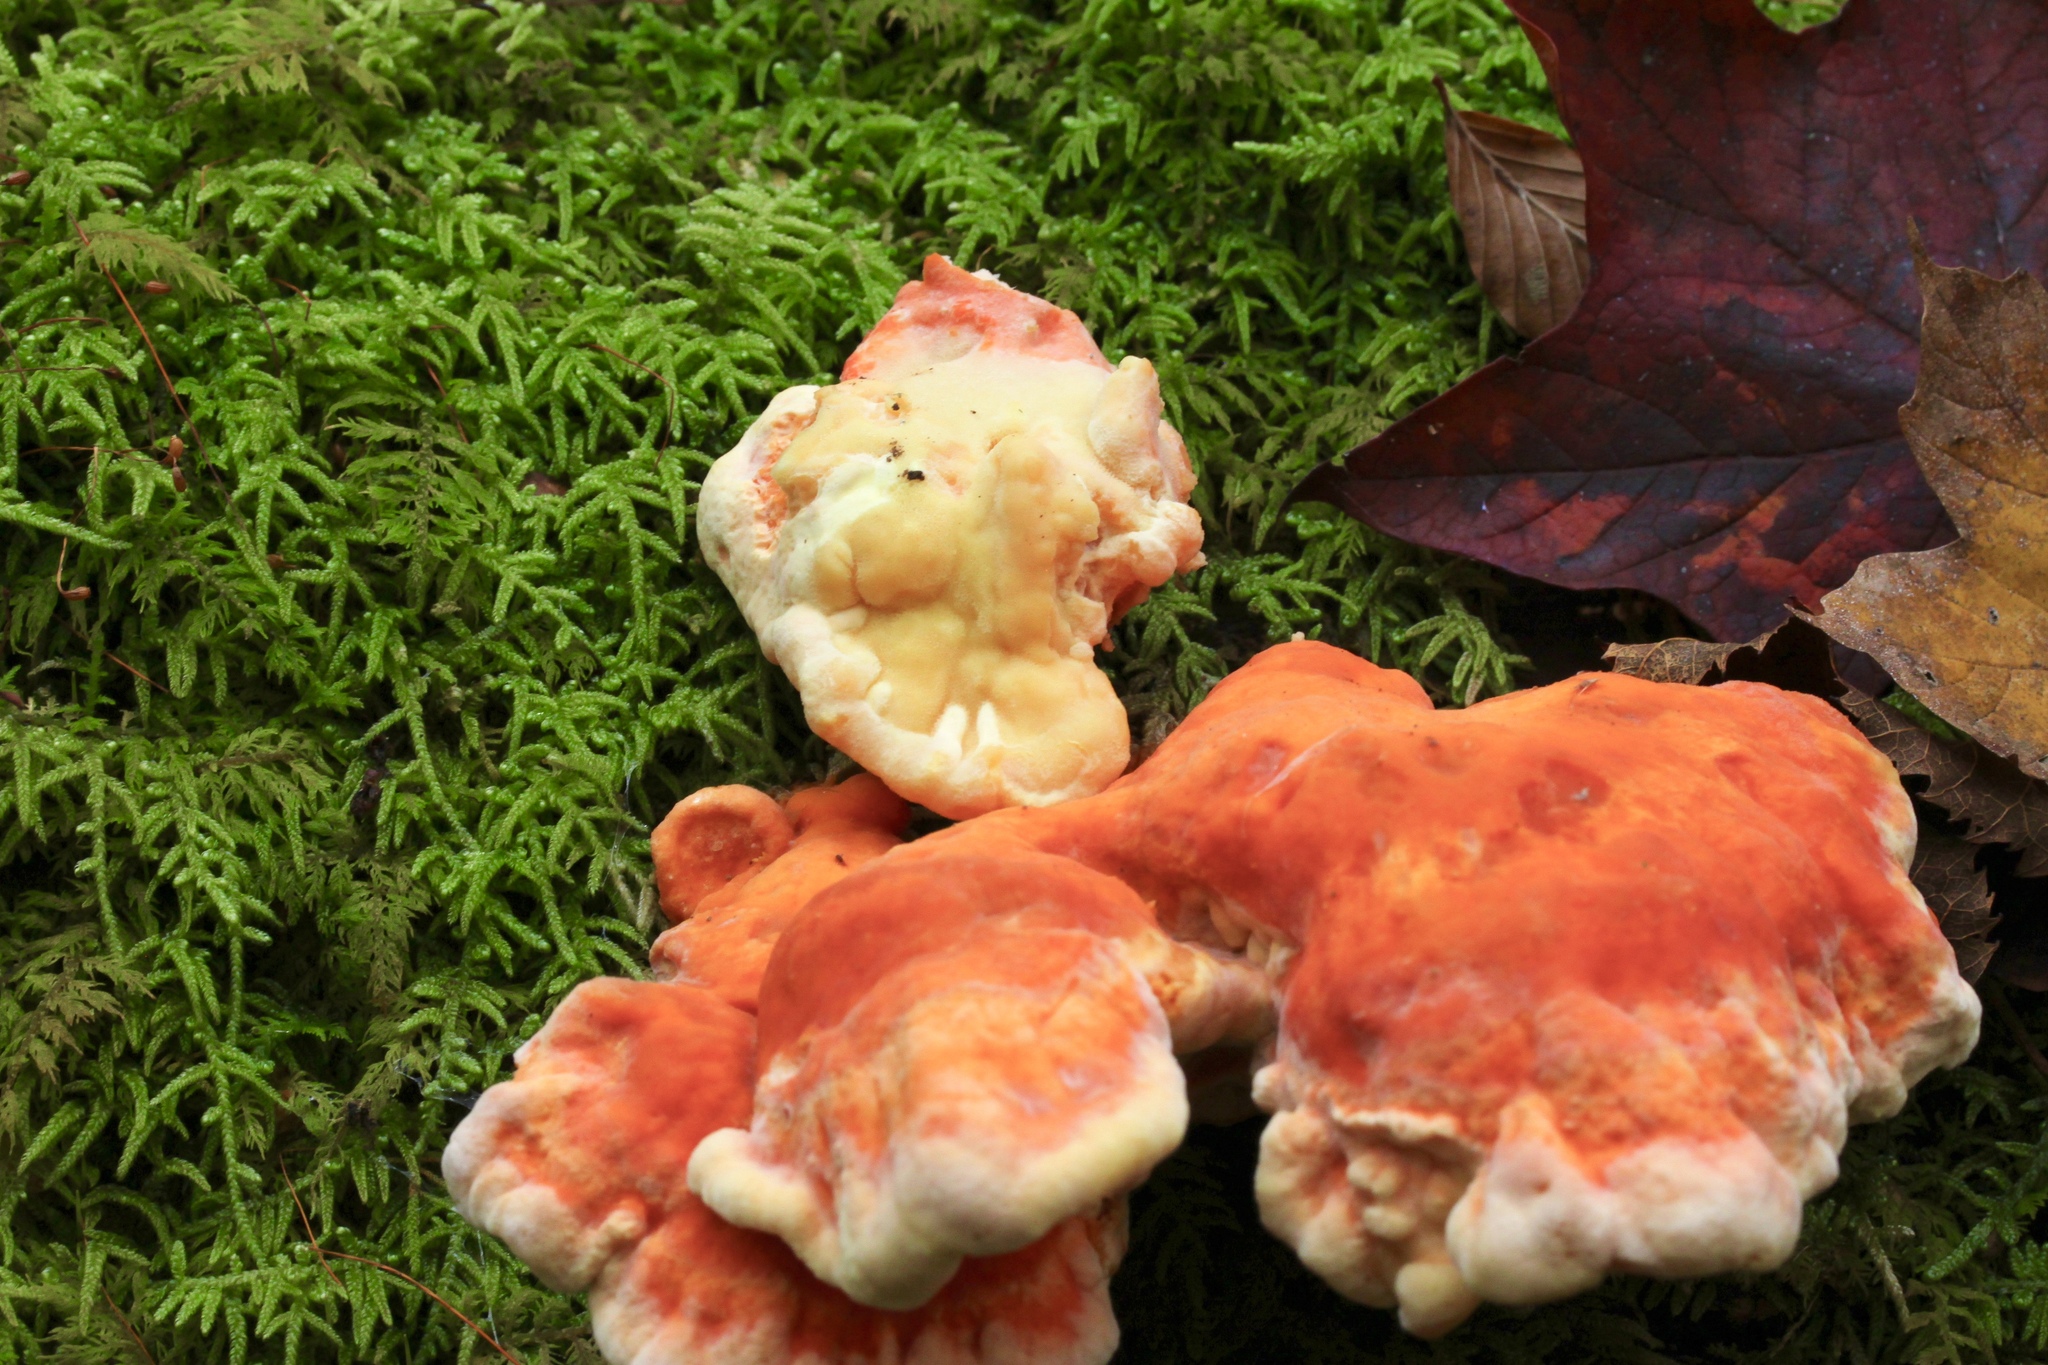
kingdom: Fungi
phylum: Basidiomycota
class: Agaricomycetes
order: Polyporales
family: Laetiporaceae
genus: Laetiporus
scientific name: Laetiporus sulphureus
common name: Chicken of the woods
